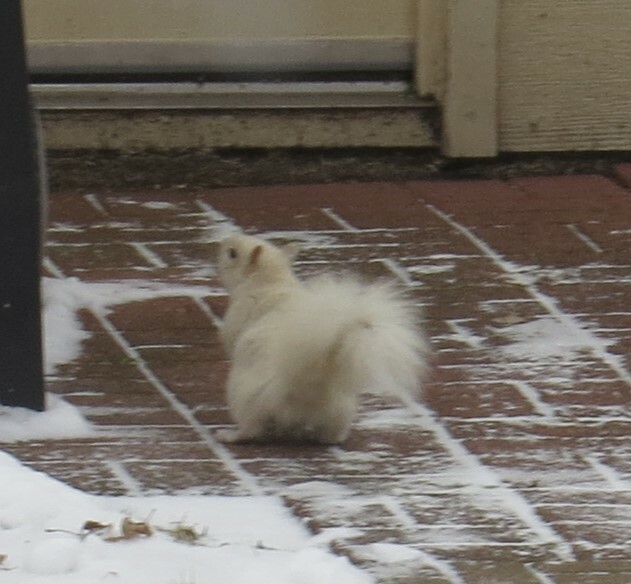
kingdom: Animalia
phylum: Chordata
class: Mammalia
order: Rodentia
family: Sciuridae
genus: Sciurus
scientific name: Sciurus carolinensis
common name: Eastern gray squirrel
